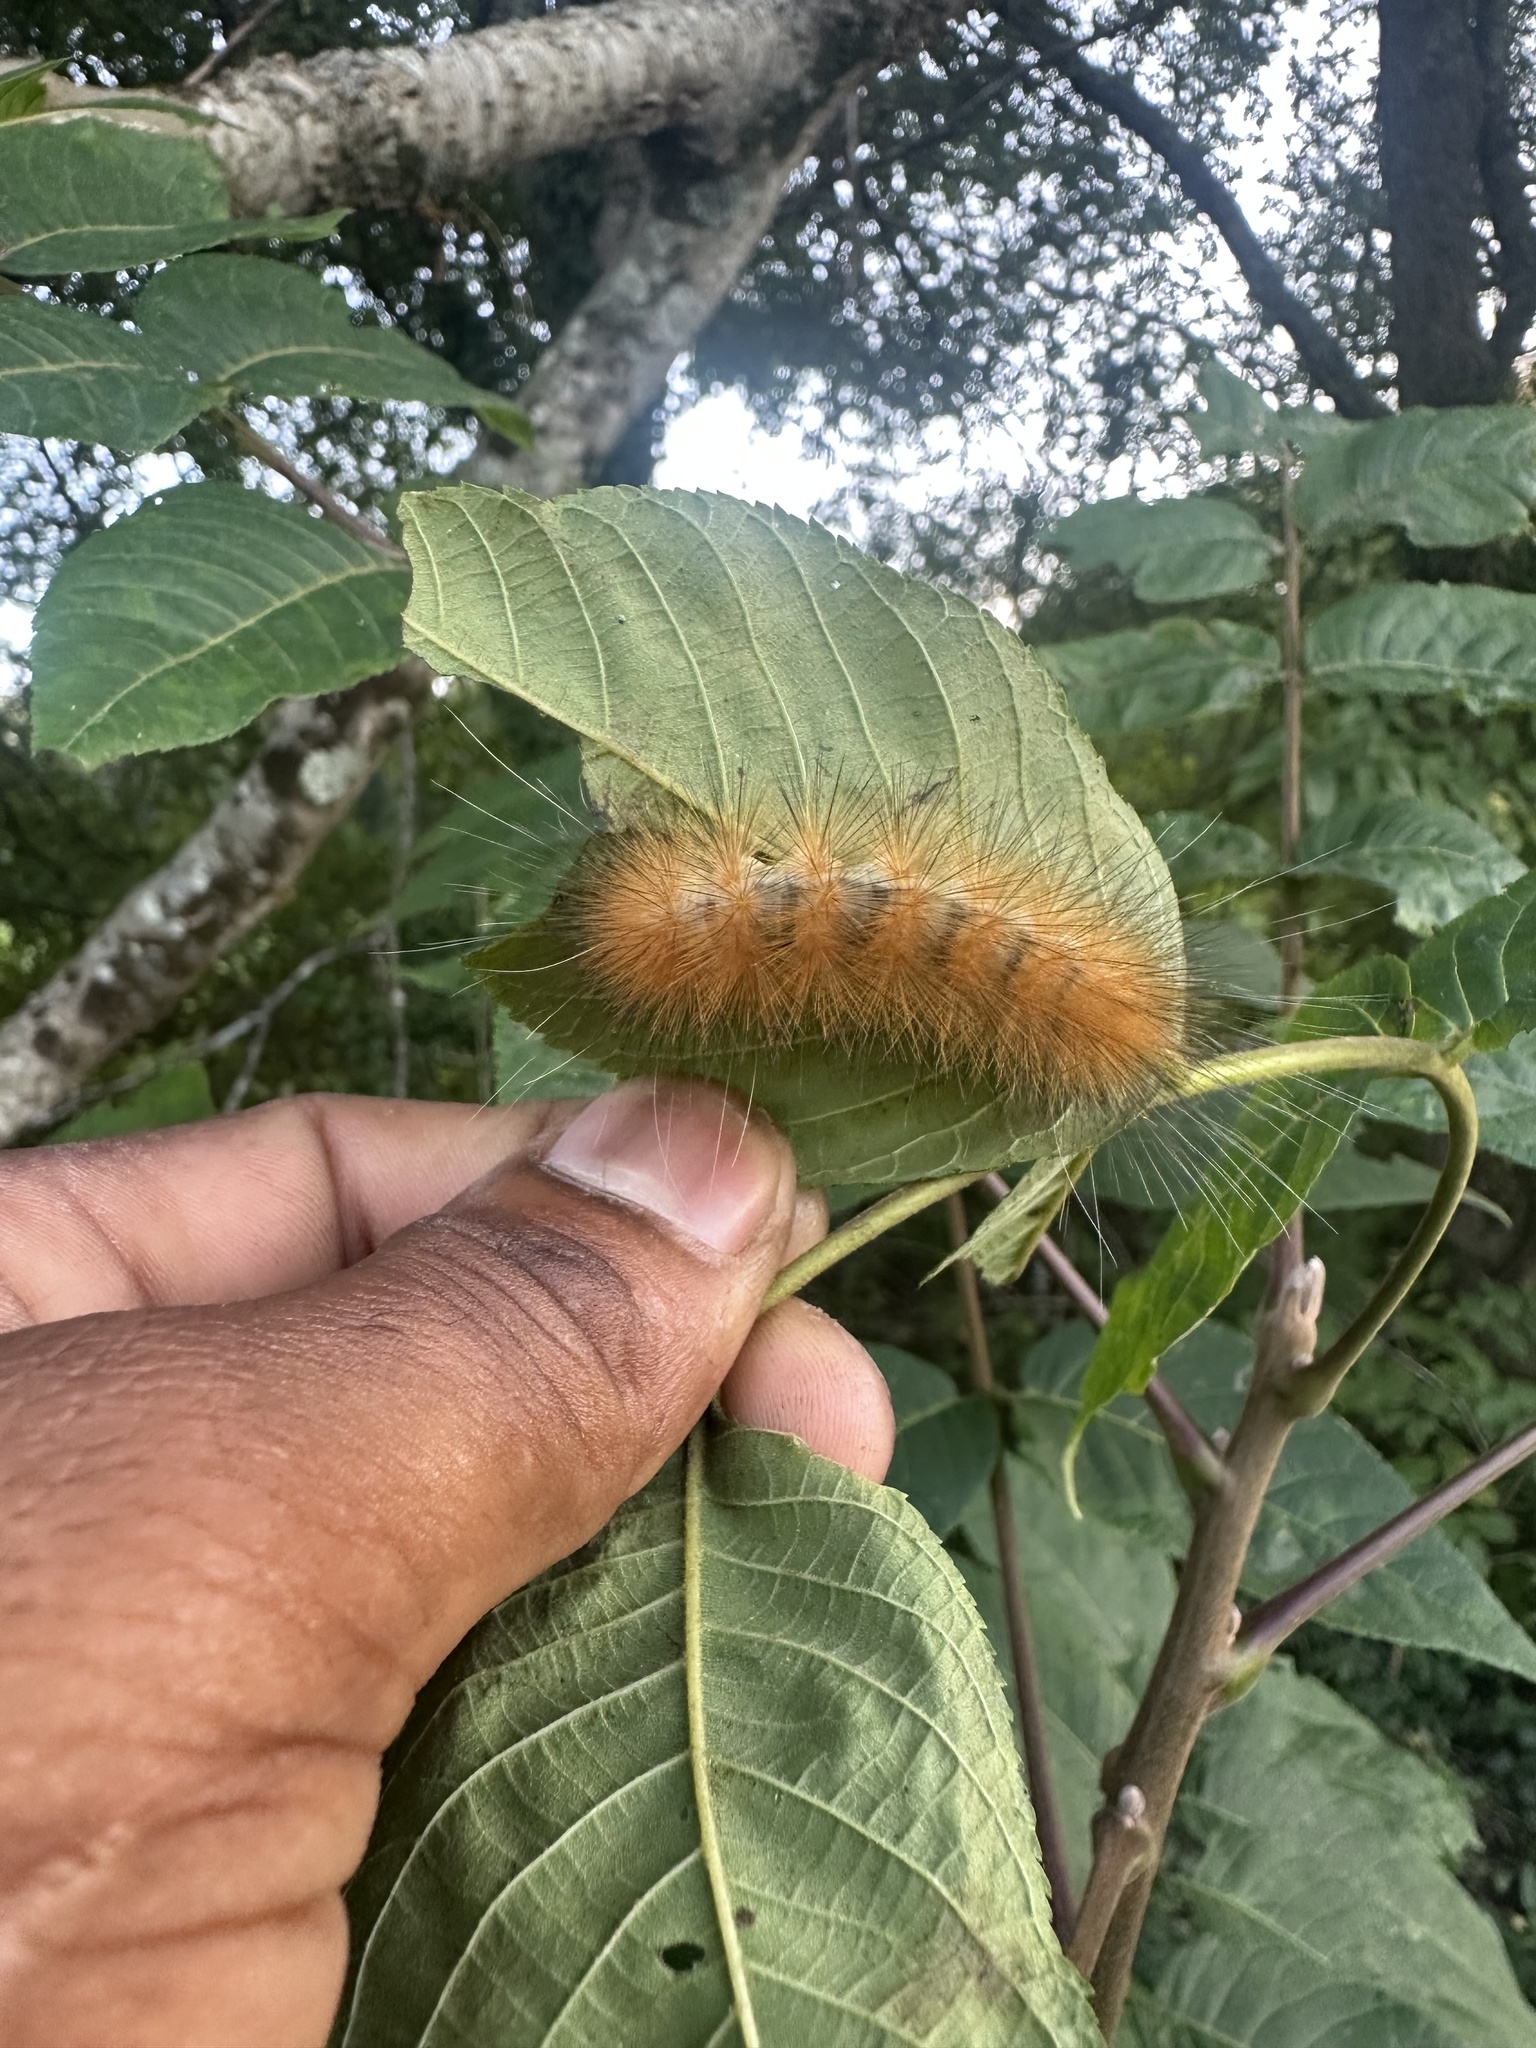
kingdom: Animalia
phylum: Arthropoda
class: Insecta
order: Lepidoptera
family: Erebidae
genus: Spilosoma
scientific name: Spilosoma virginica
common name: Virginia tiger moth
